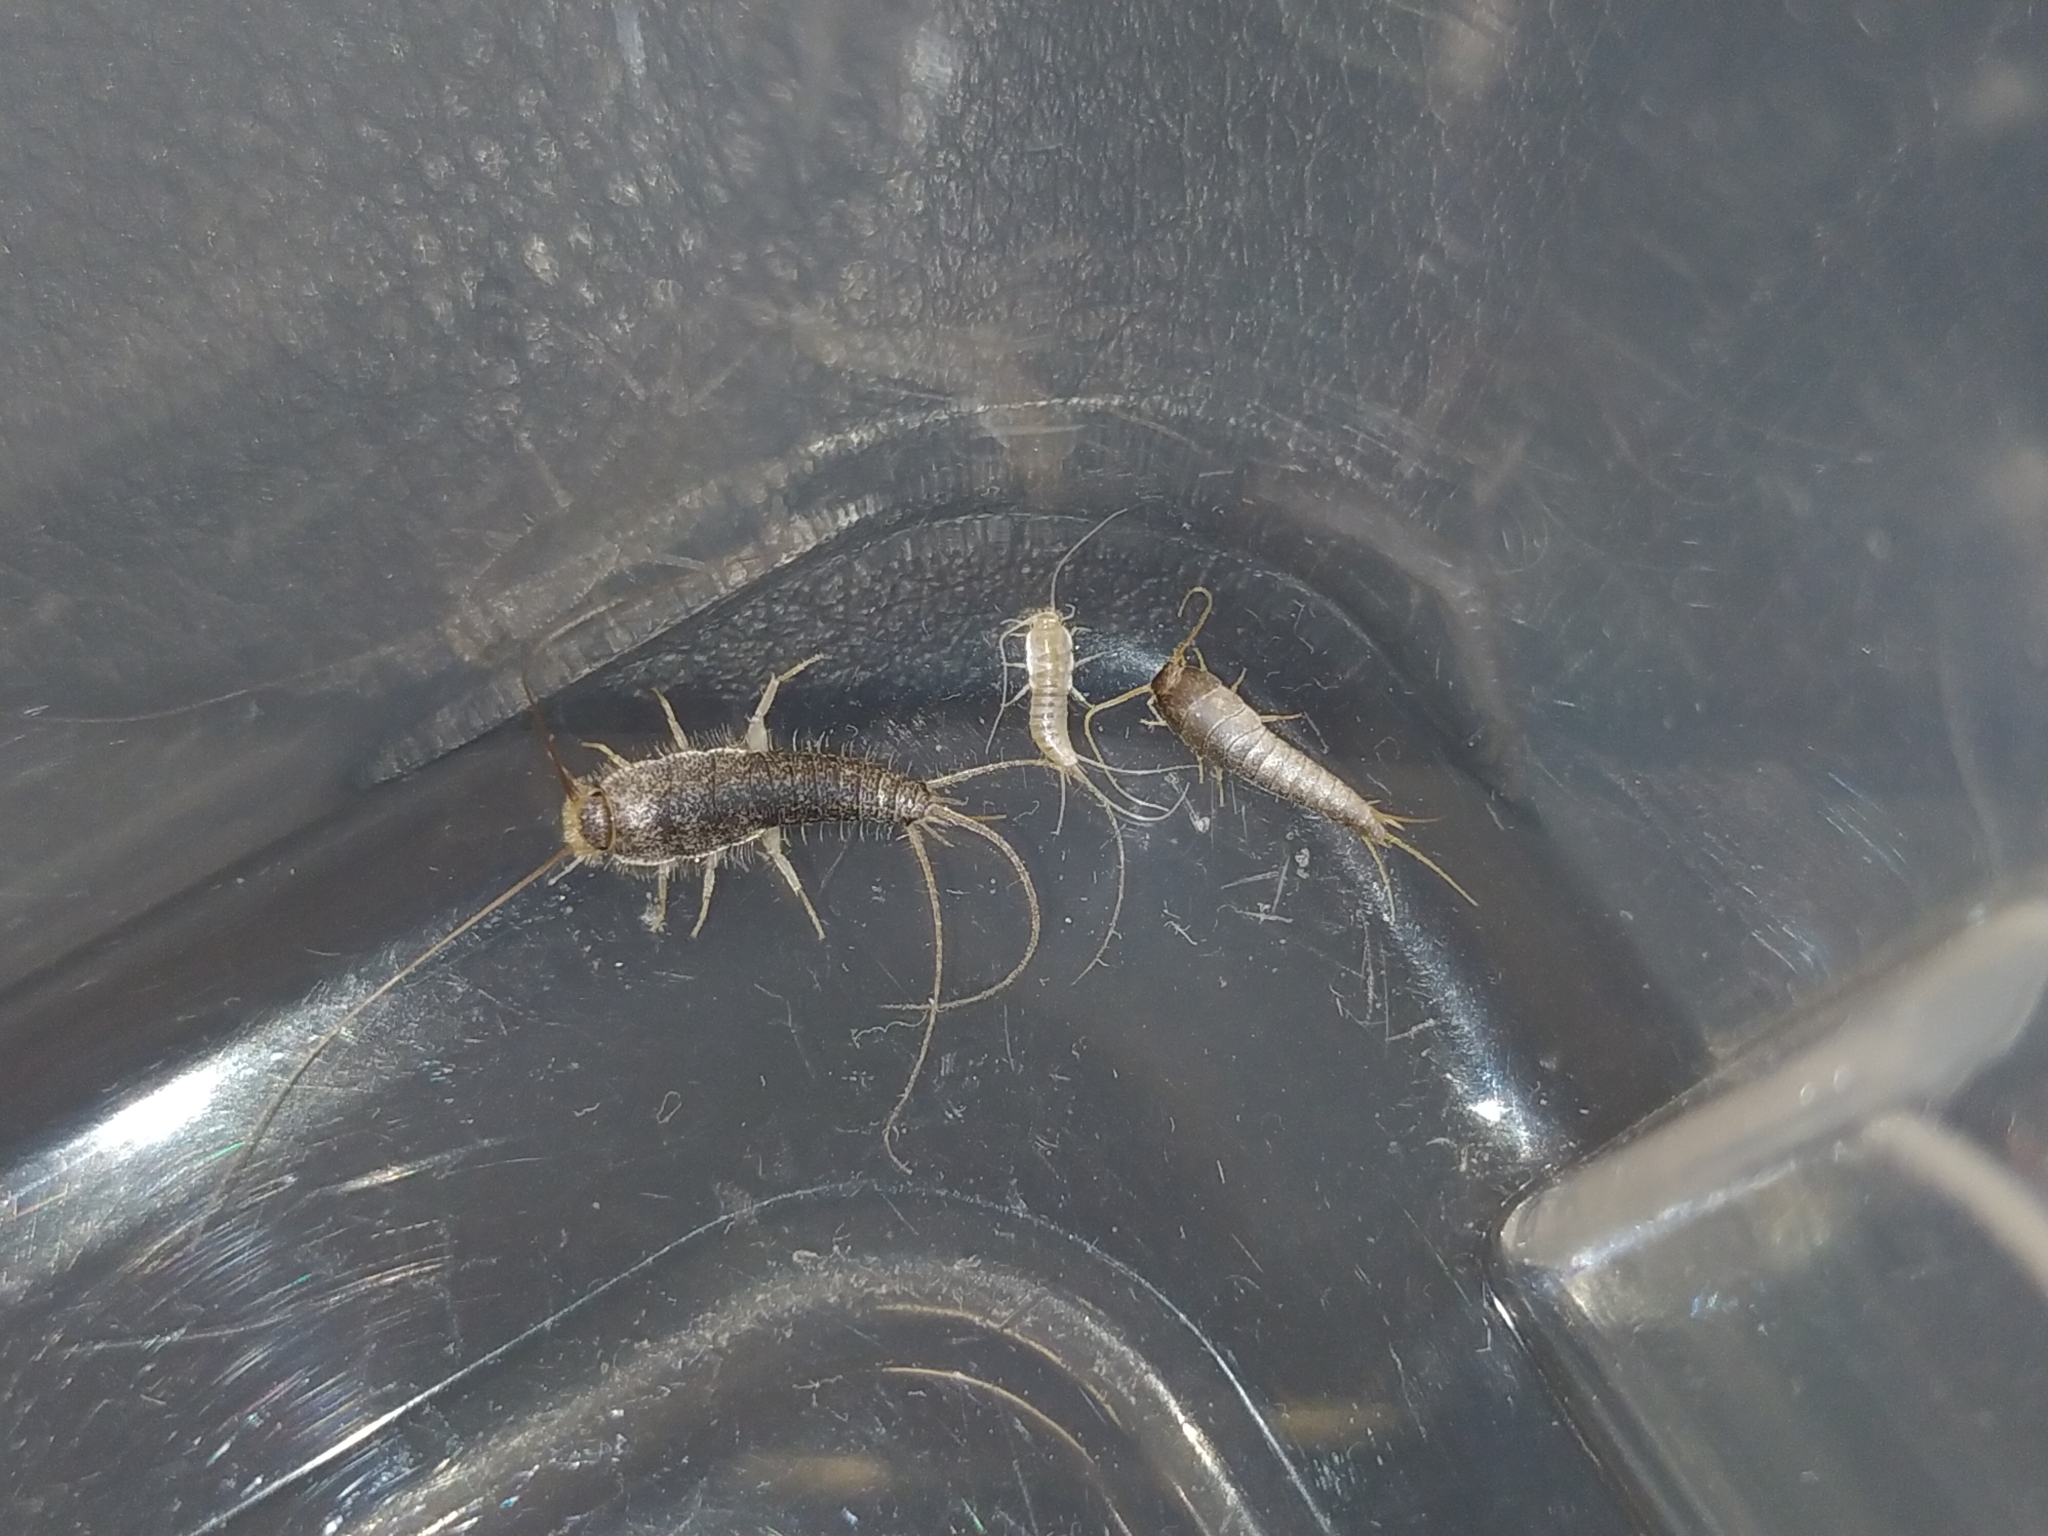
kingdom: Animalia
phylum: Arthropoda
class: Insecta
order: Zygentoma
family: Lepismatidae
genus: Ctenolepisma
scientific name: Ctenolepisma calvum
